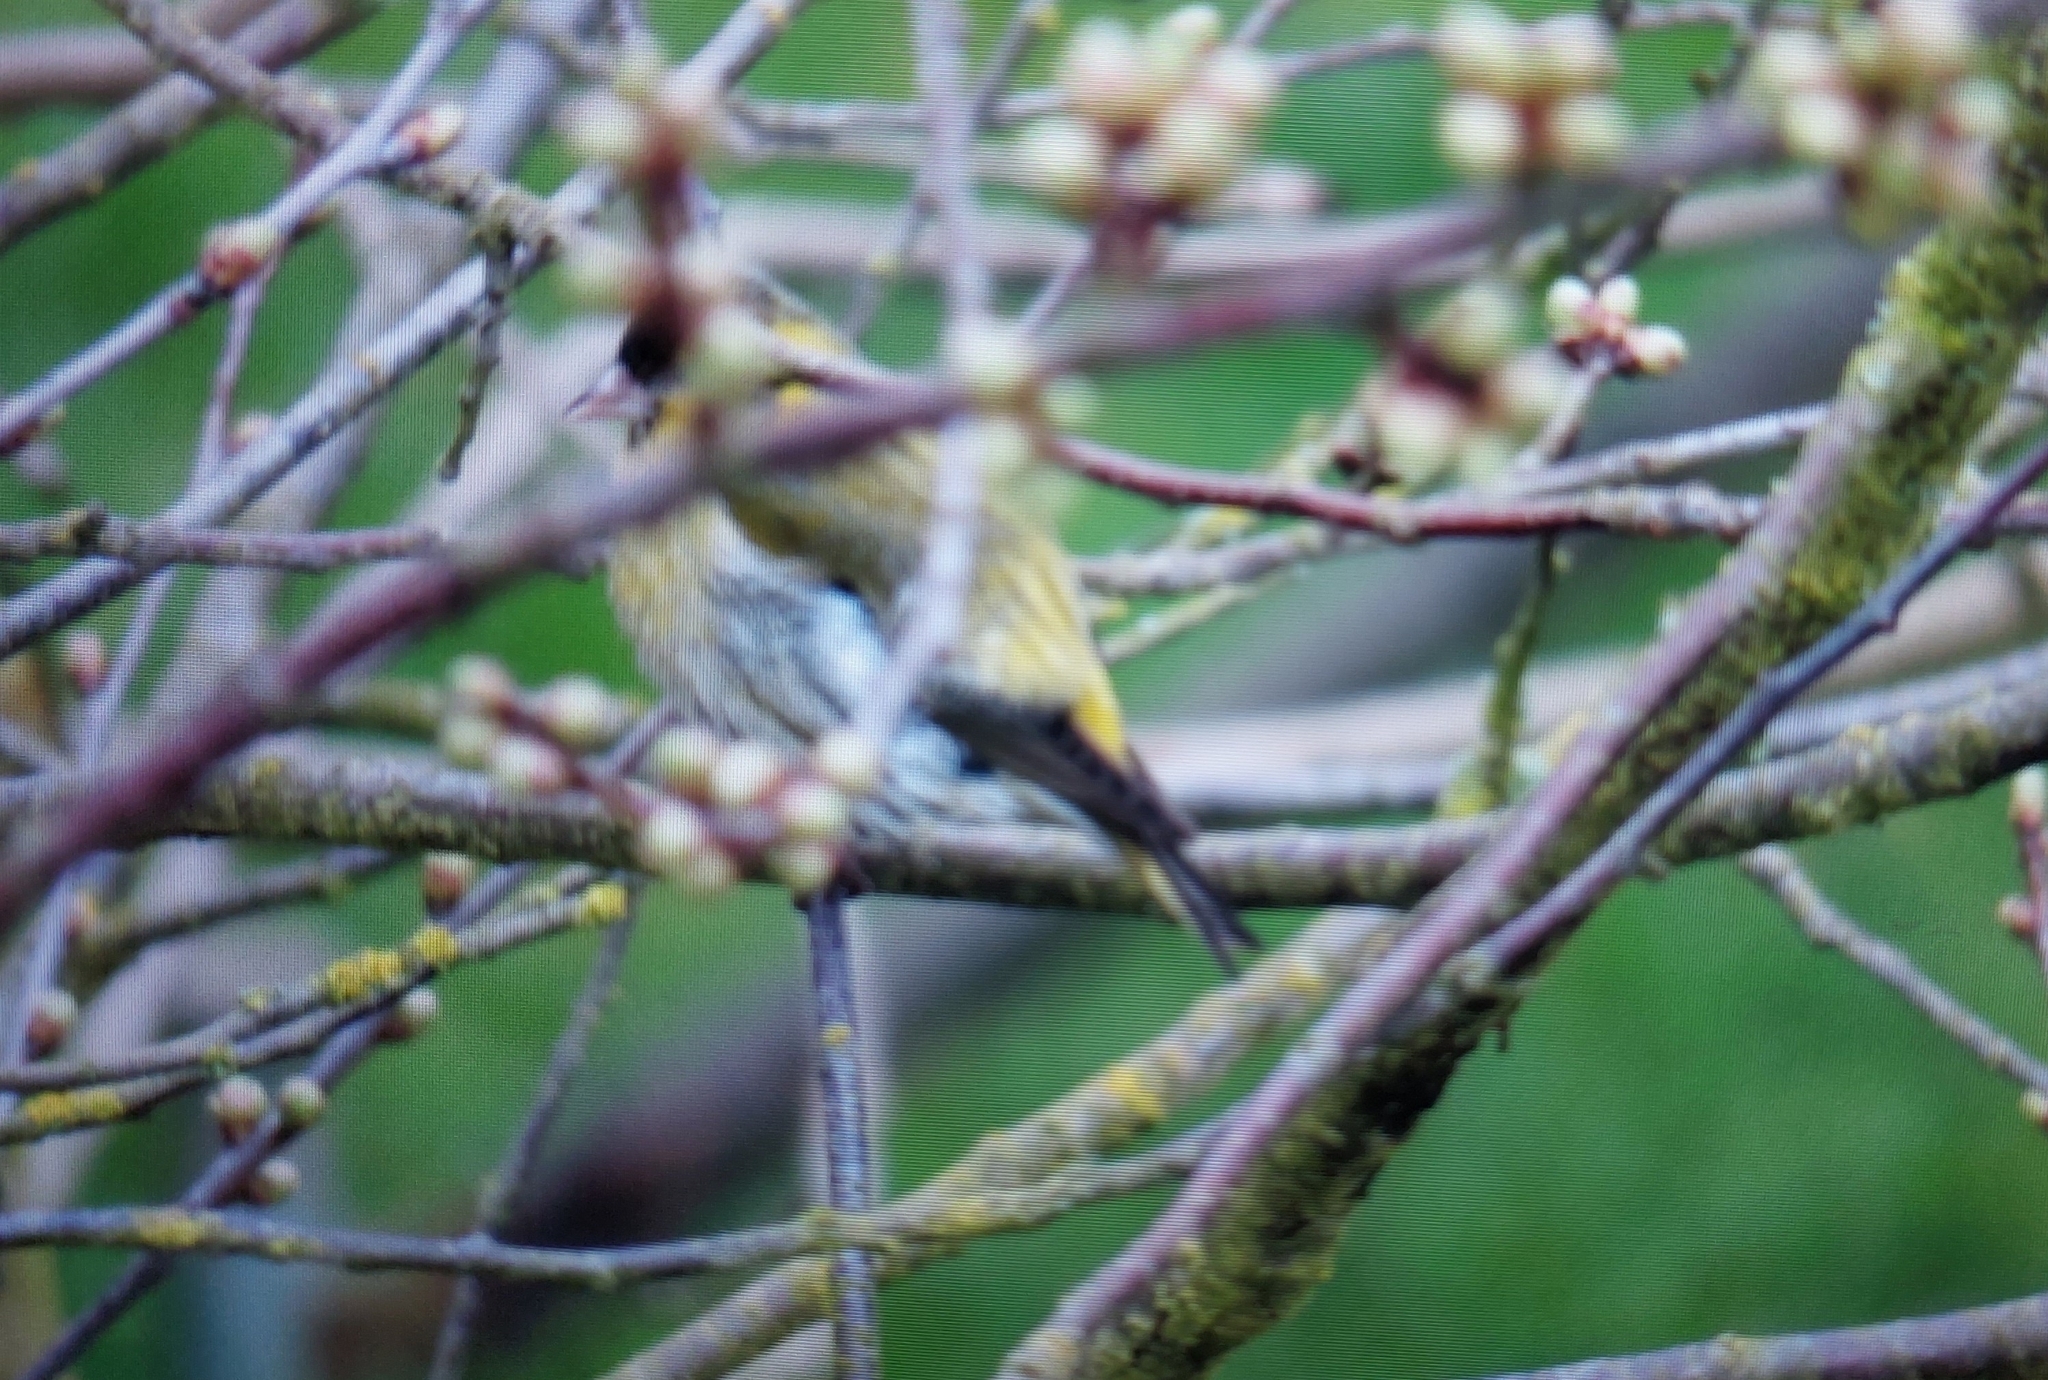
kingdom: Animalia
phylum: Chordata
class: Aves
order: Passeriformes
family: Fringillidae
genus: Spinus
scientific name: Spinus spinus
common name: Eurasian siskin
